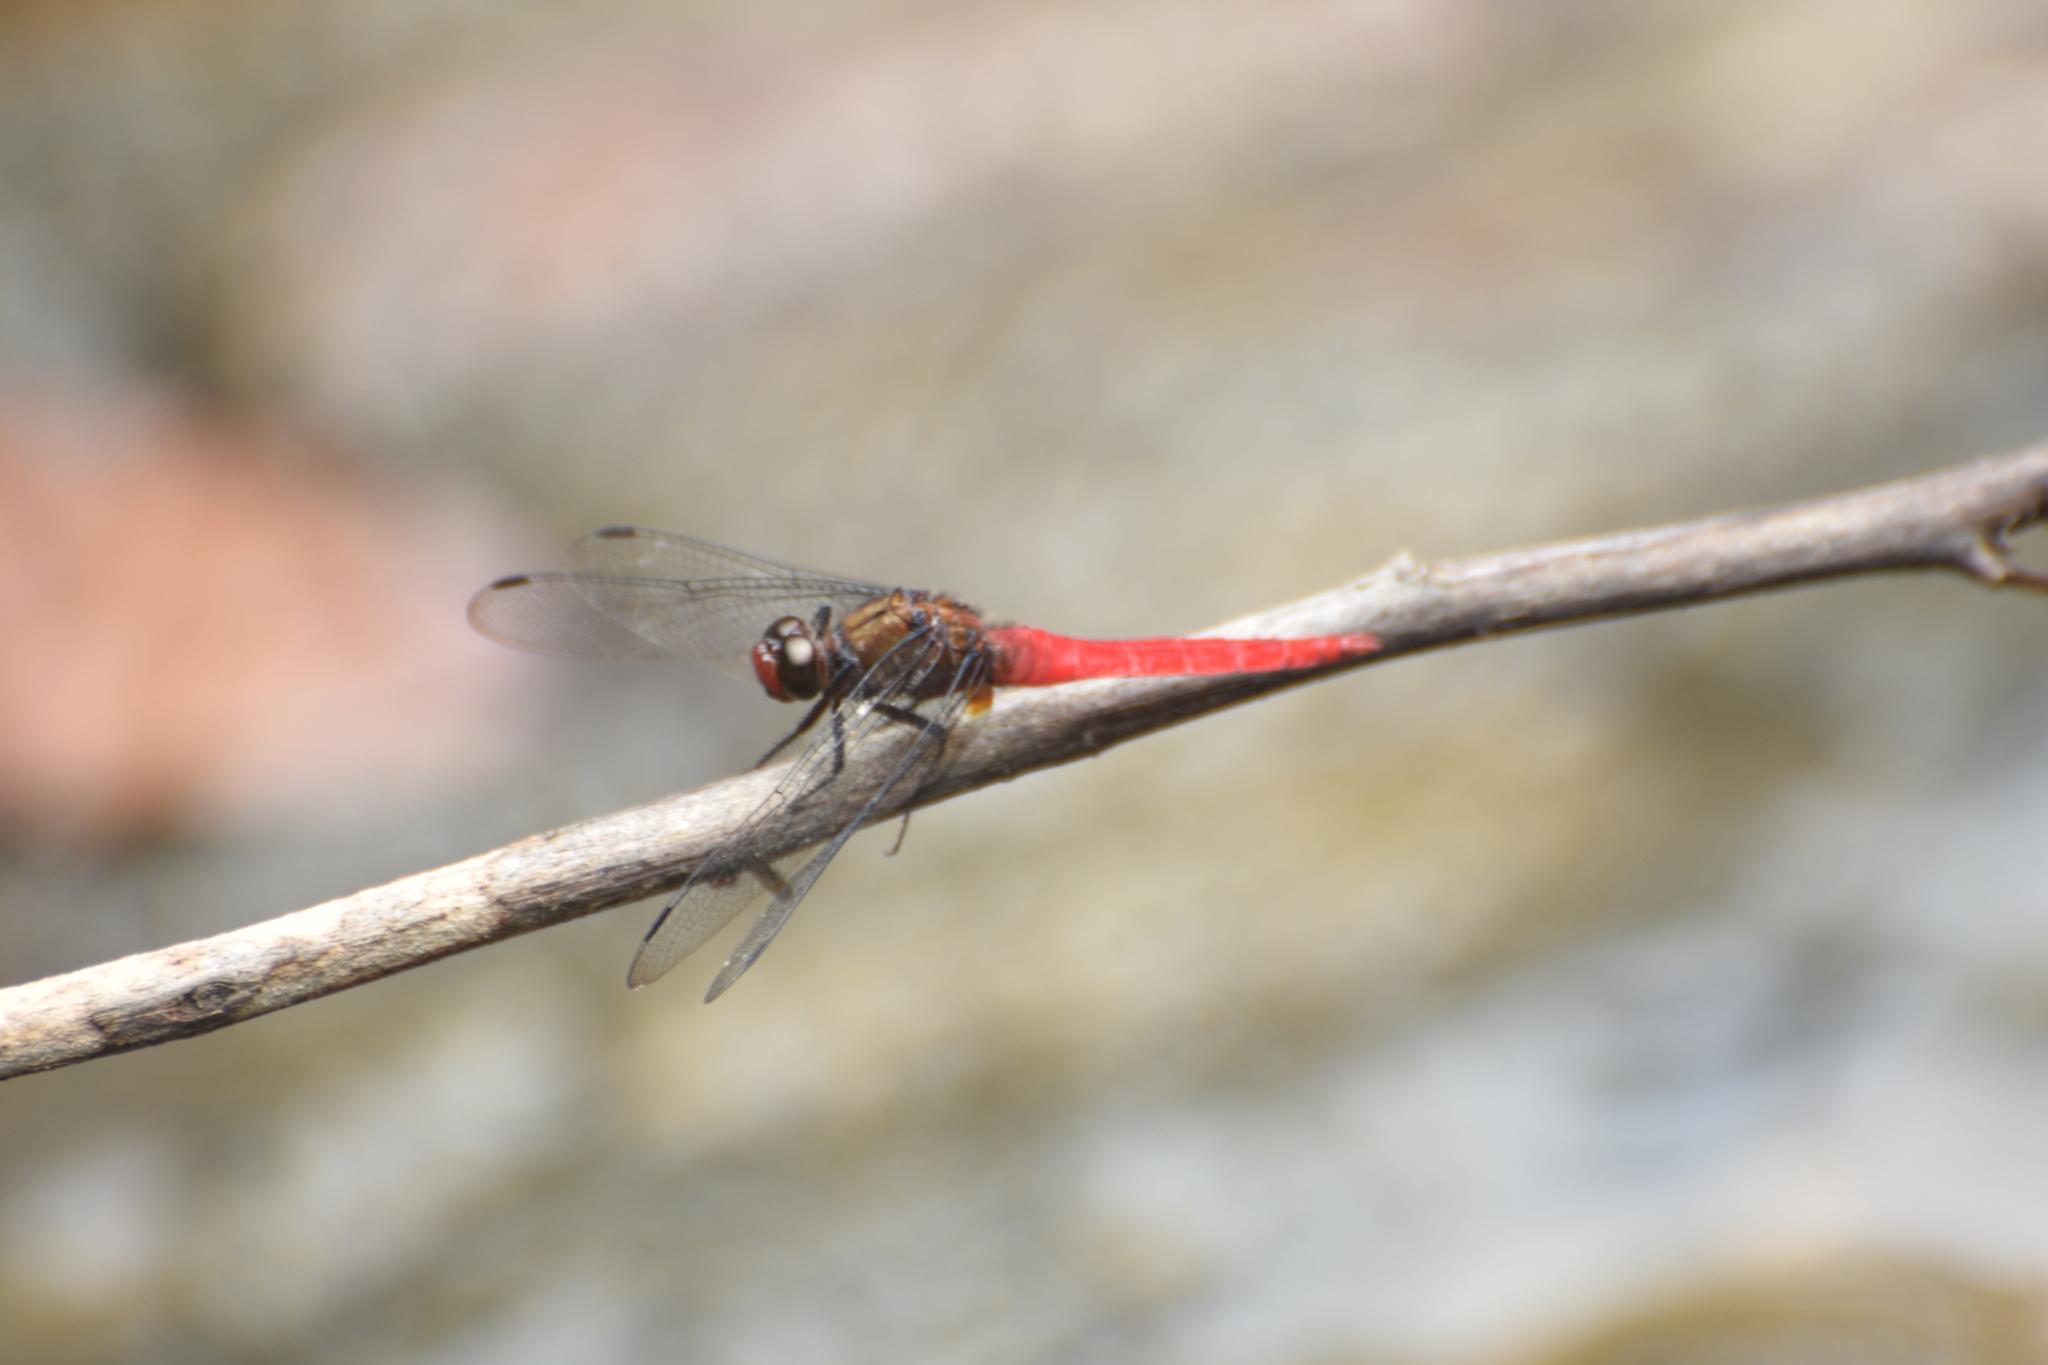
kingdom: Animalia
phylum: Arthropoda
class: Insecta
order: Odonata
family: Libellulidae
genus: Orthetrum
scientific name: Orthetrum chrysis
